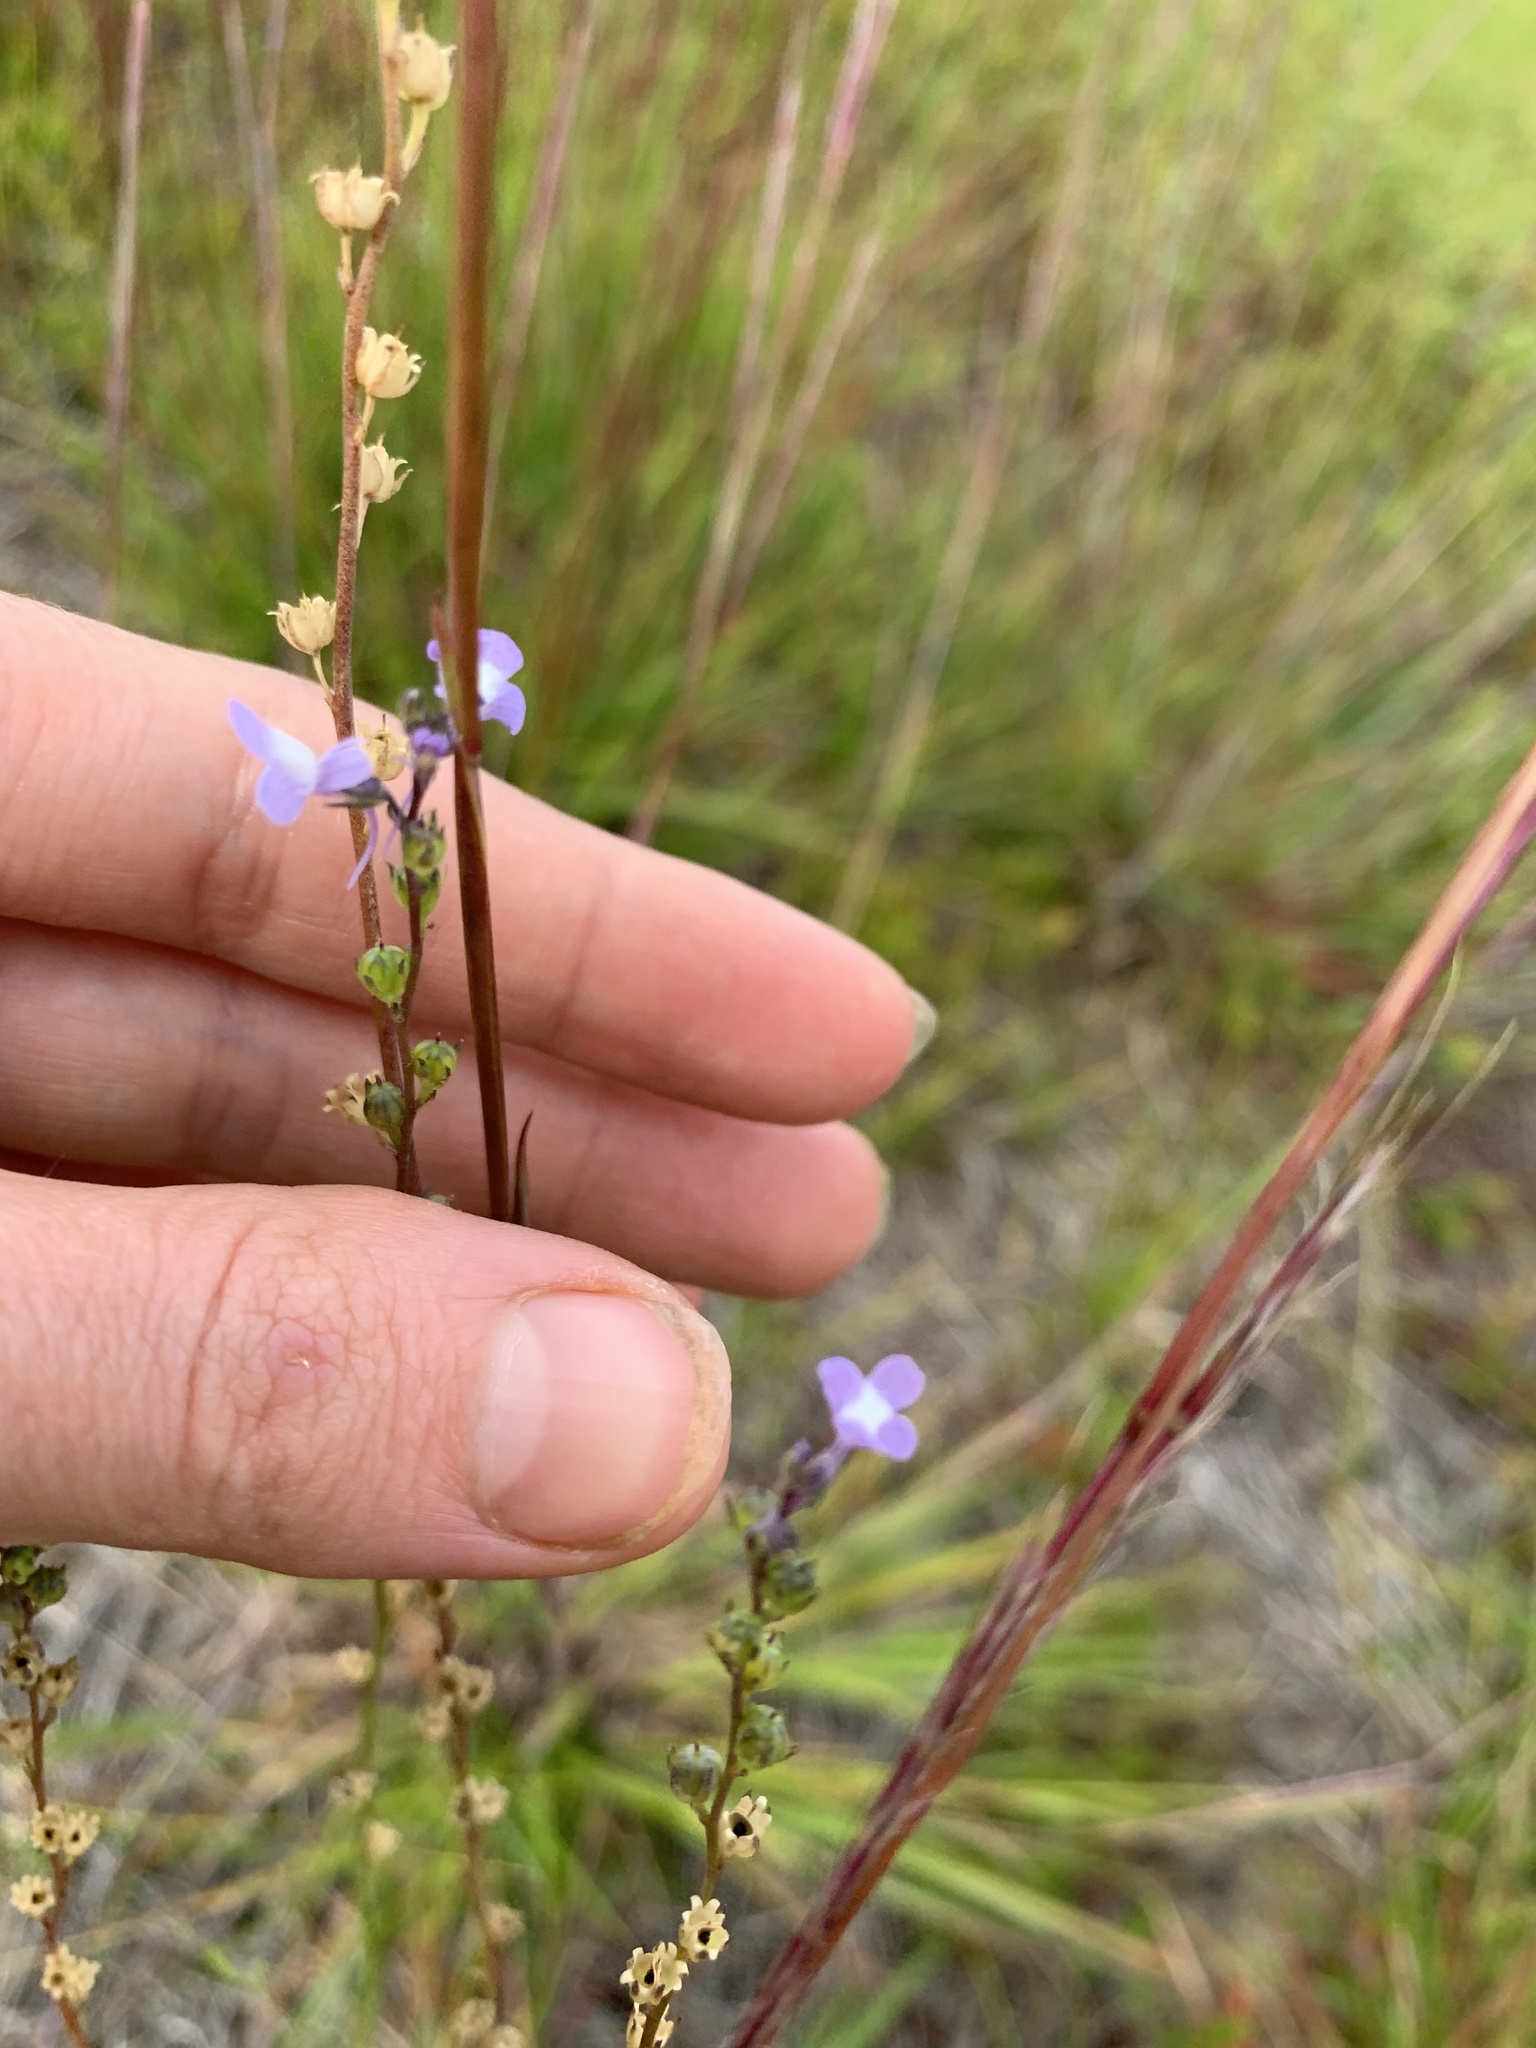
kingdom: Plantae
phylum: Tracheophyta
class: Magnoliopsida
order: Lamiales
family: Plantaginaceae
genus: Nuttallanthus
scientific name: Nuttallanthus canadensis
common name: Blue toadflax
